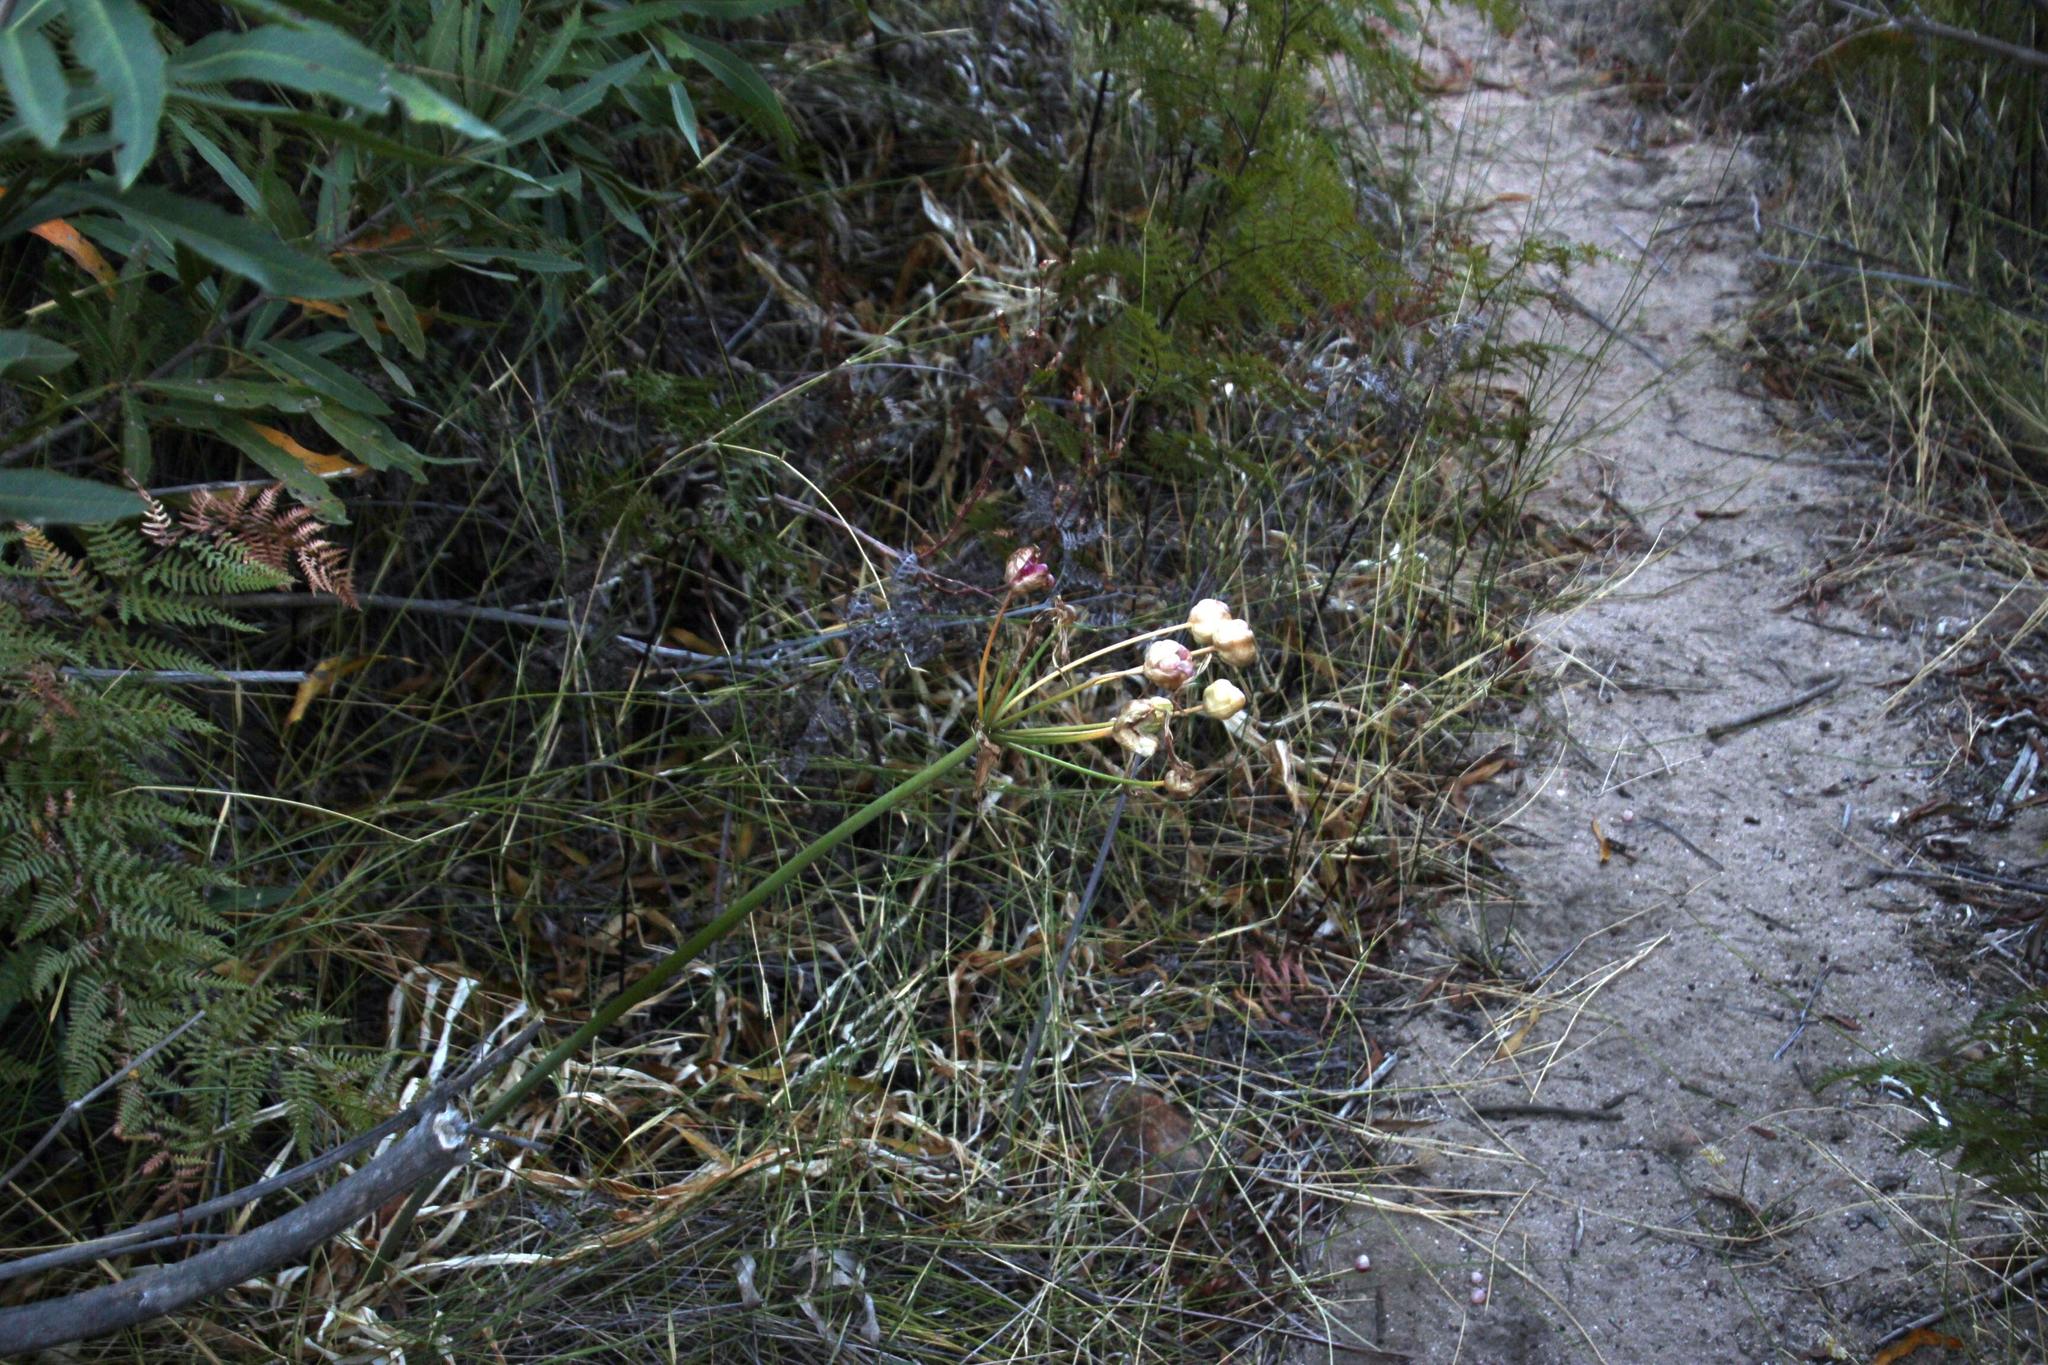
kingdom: Plantae
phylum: Tracheophyta
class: Liliopsida
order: Asparagales
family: Amaryllidaceae
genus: Amaryllis
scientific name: Amaryllis belladonna
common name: Jersey lily
